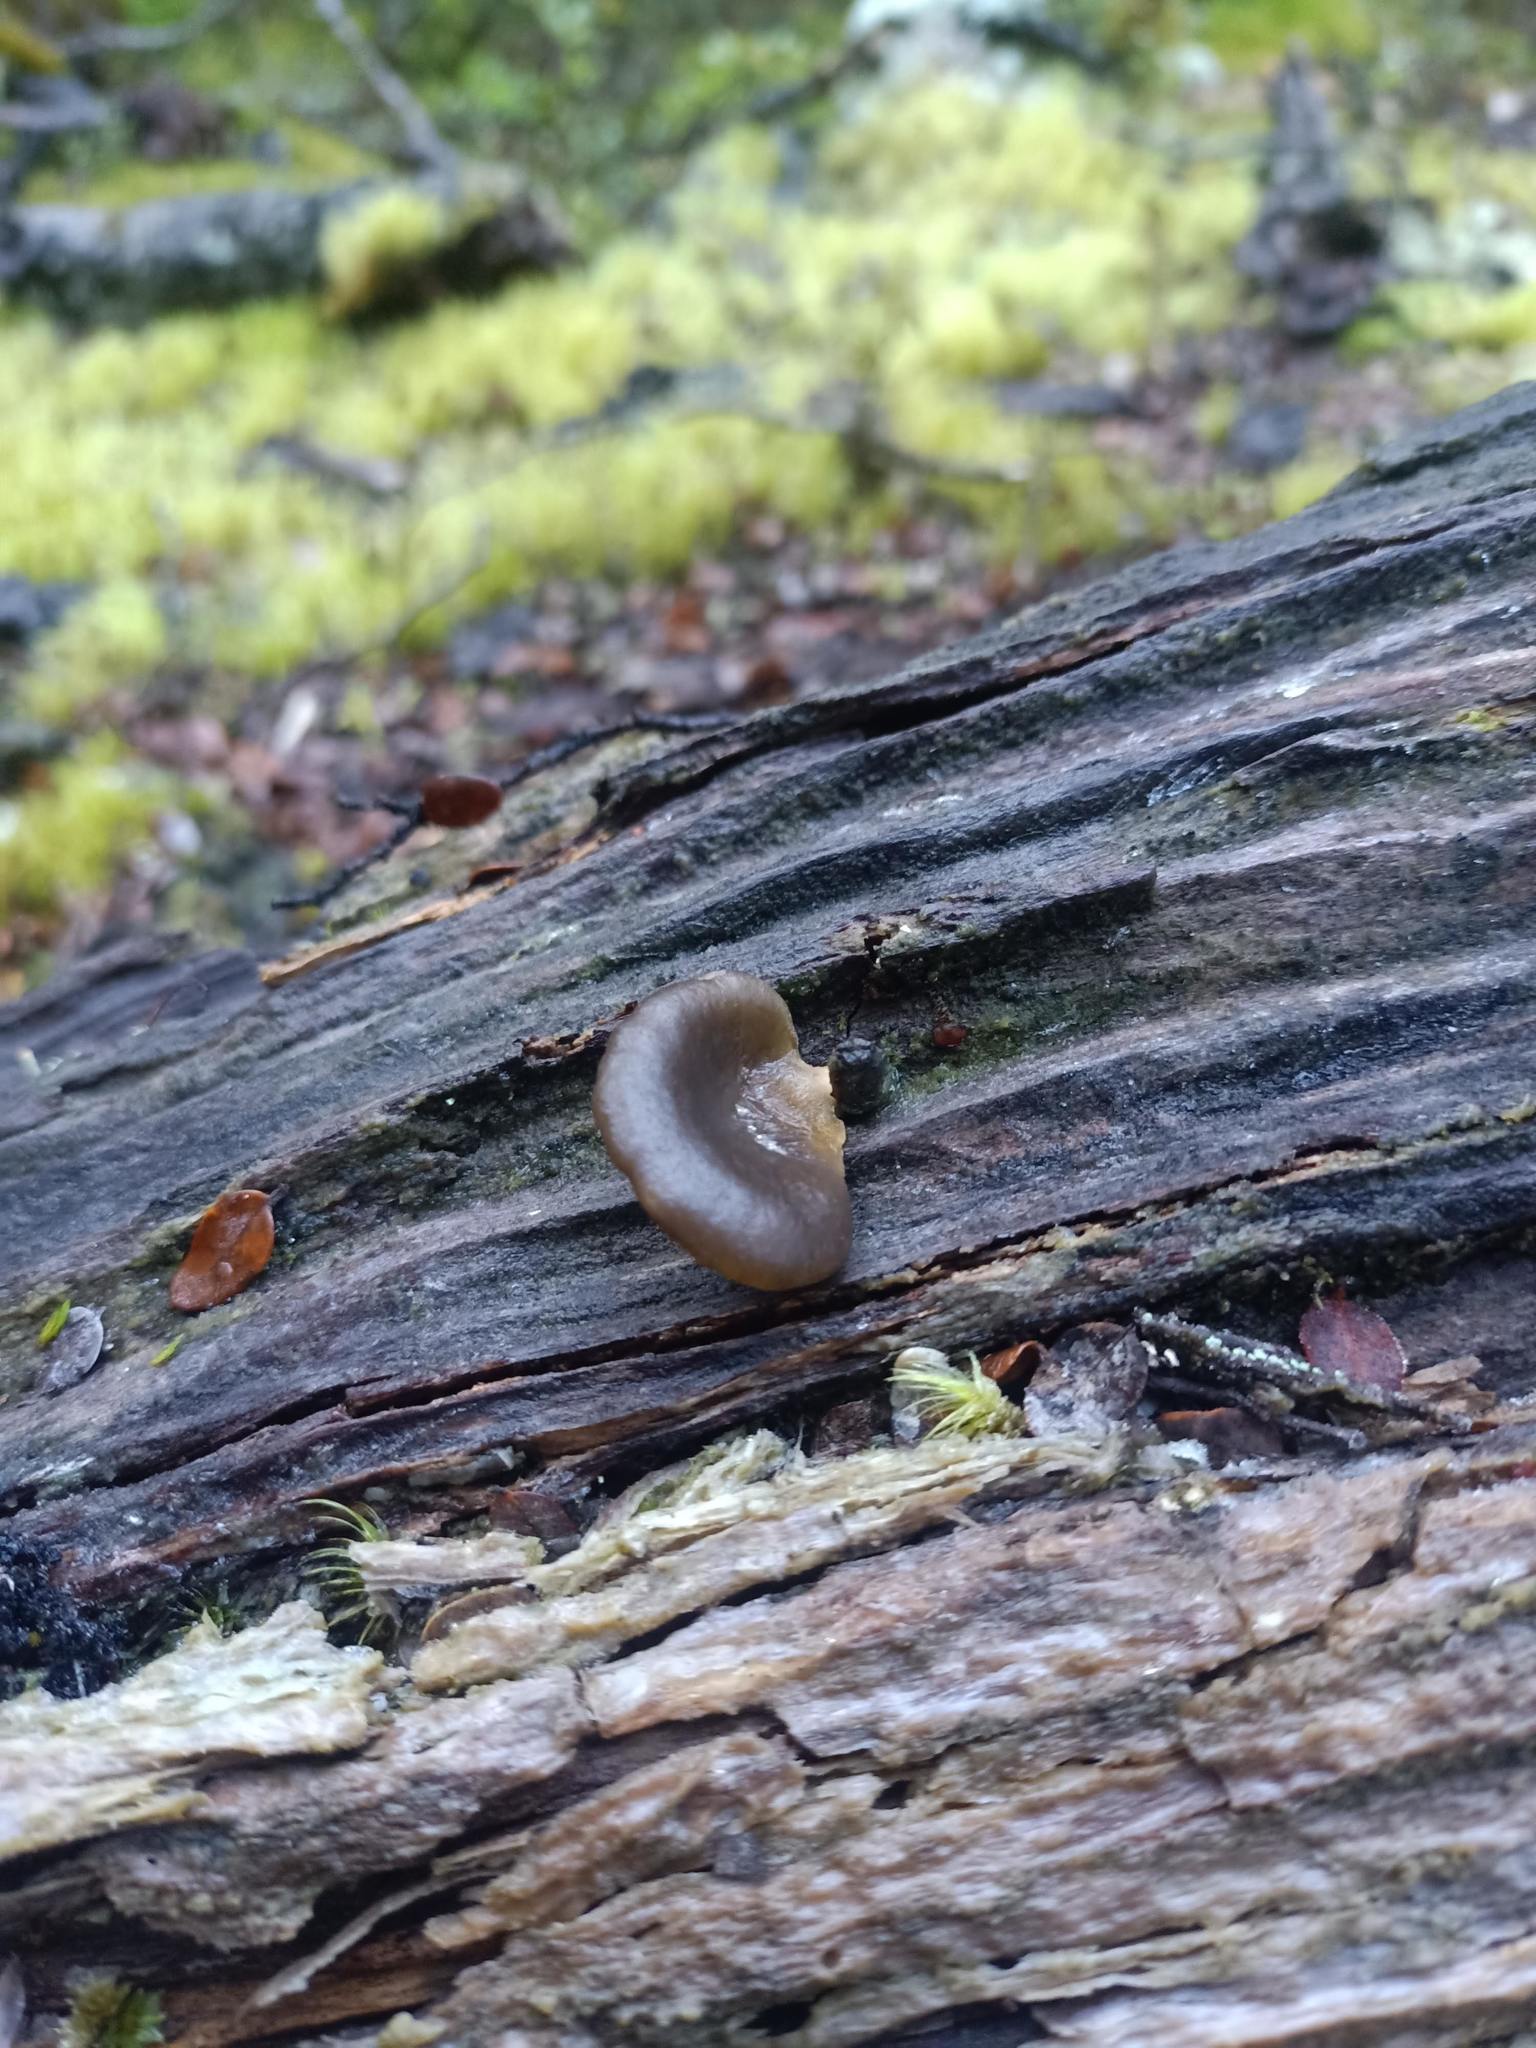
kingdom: Fungi
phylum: Basidiomycota
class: Agaricomycetes
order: Agaricales
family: Pleurotaceae
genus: Pleurotus
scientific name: Pleurotus purpureo-olivaceus
